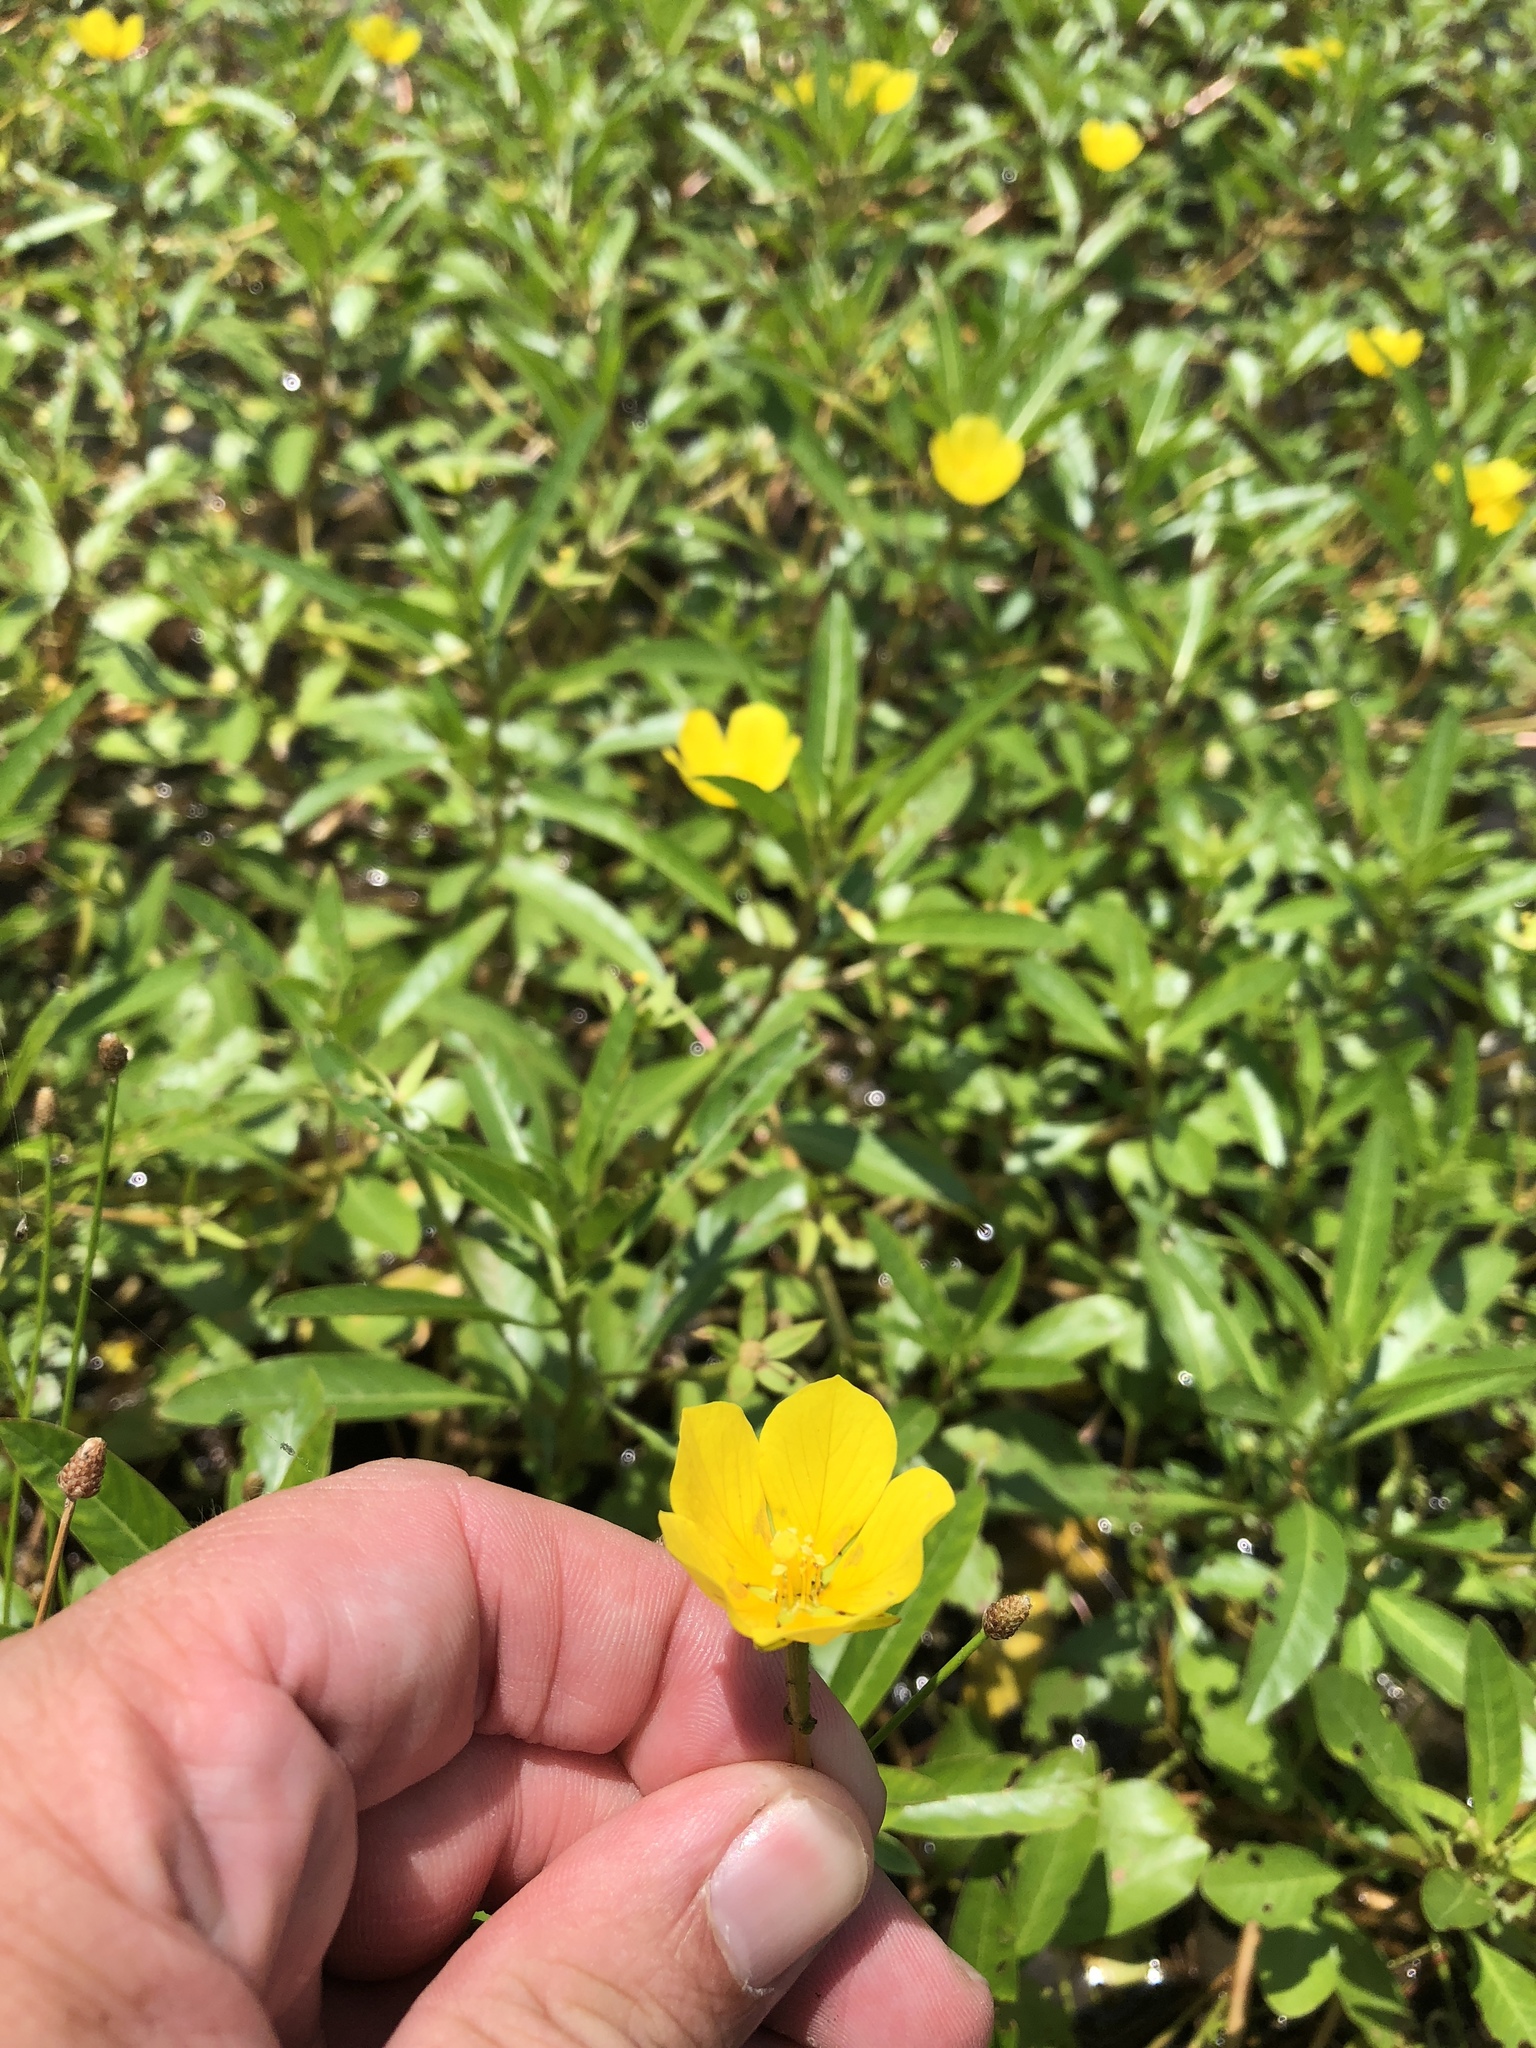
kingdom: Plantae
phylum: Tracheophyta
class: Magnoliopsida
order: Myrtales
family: Onagraceae
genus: Ludwigia
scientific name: Ludwigia peploides
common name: Floating primrose-willow
